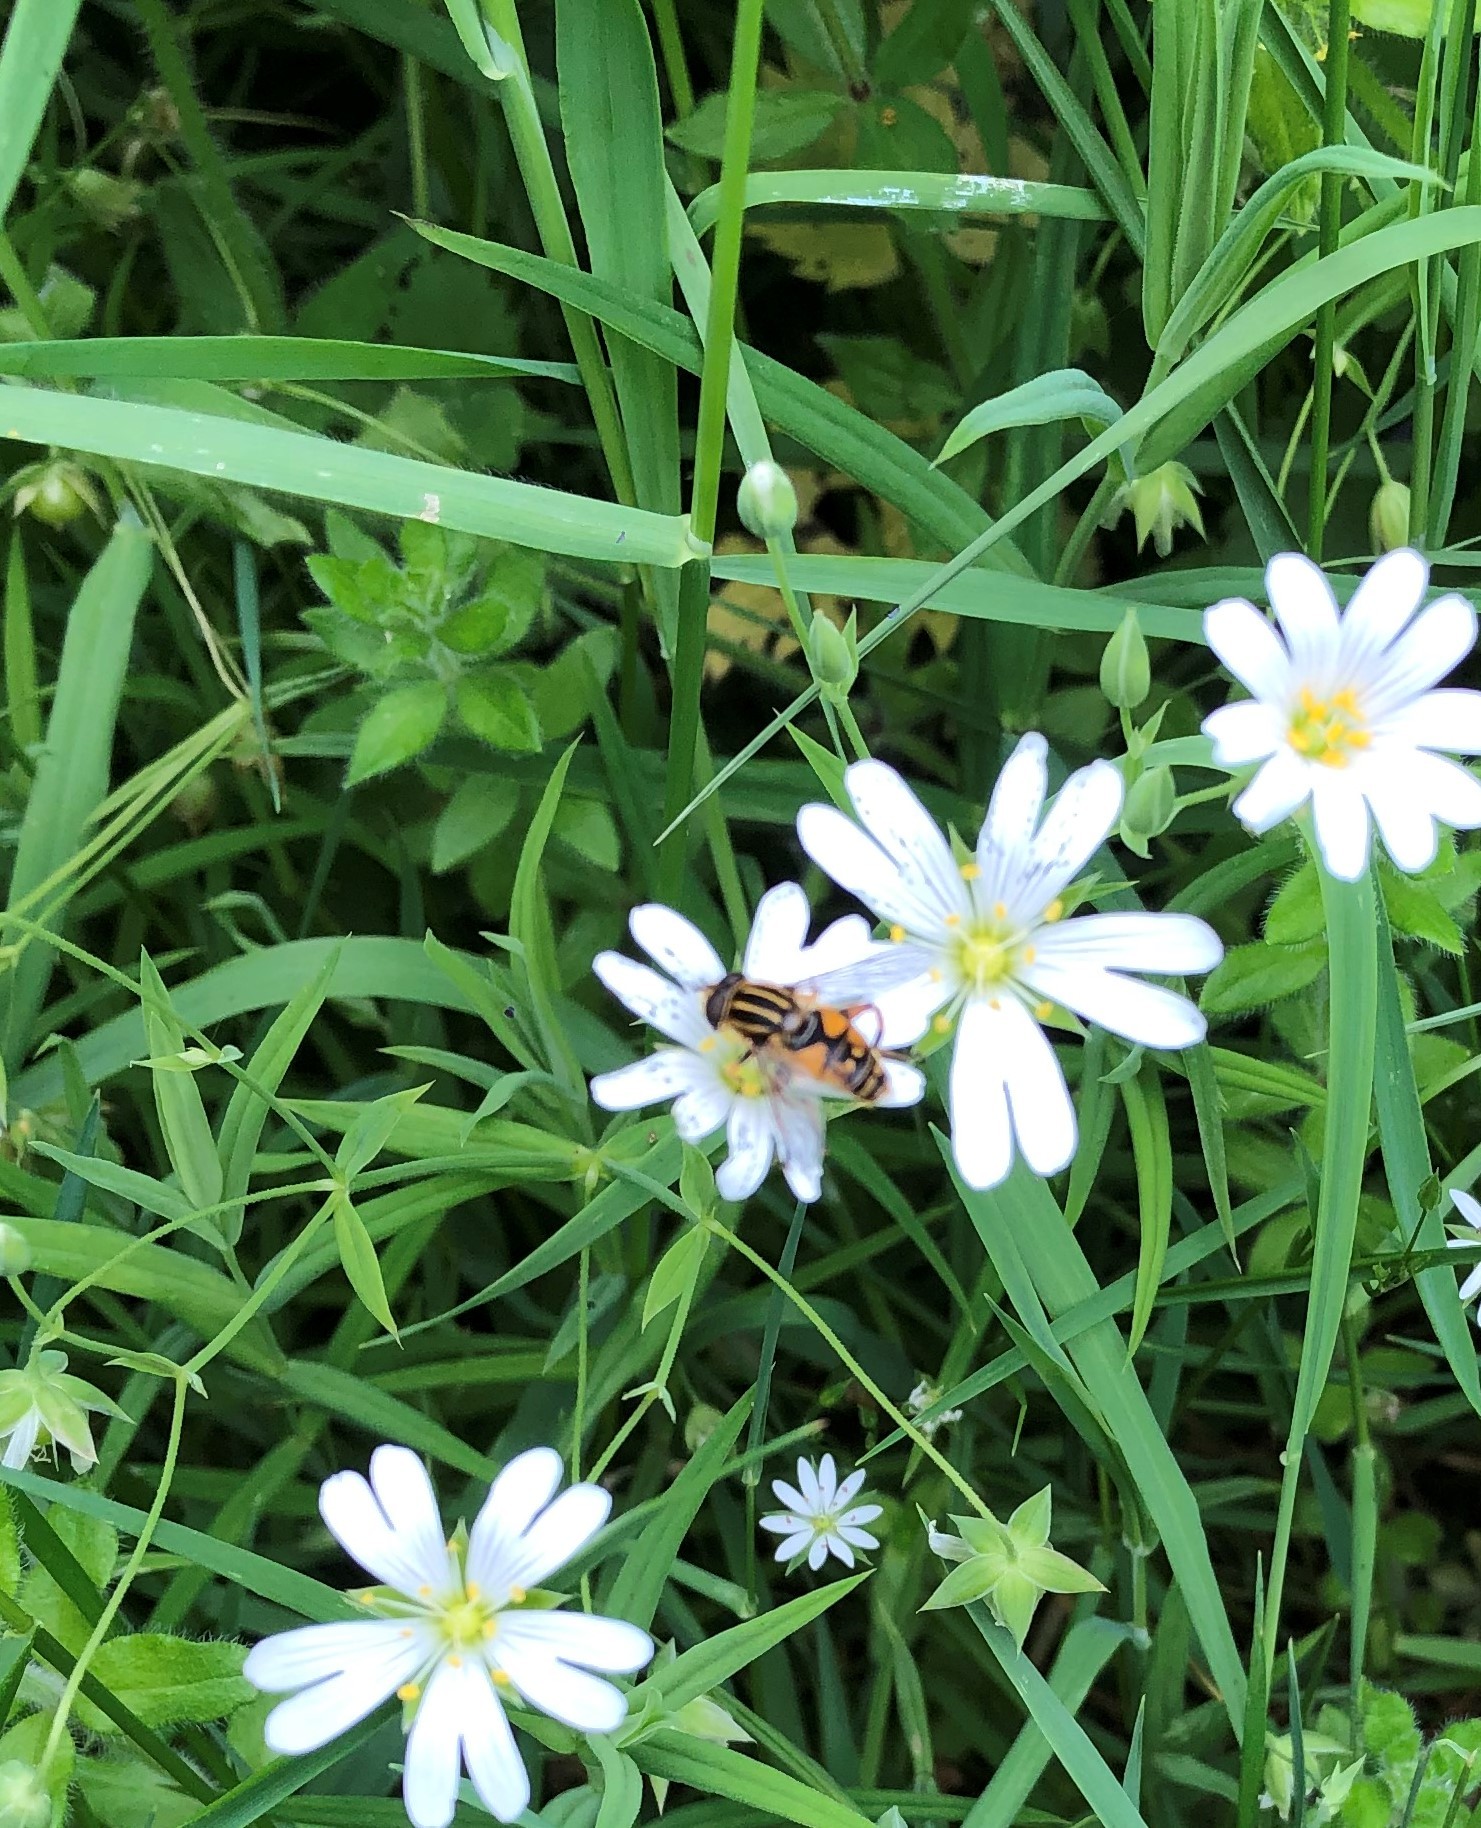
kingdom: Animalia
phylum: Arthropoda
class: Insecta
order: Diptera
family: Syrphidae
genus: Helophilus
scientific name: Helophilus pendulus
